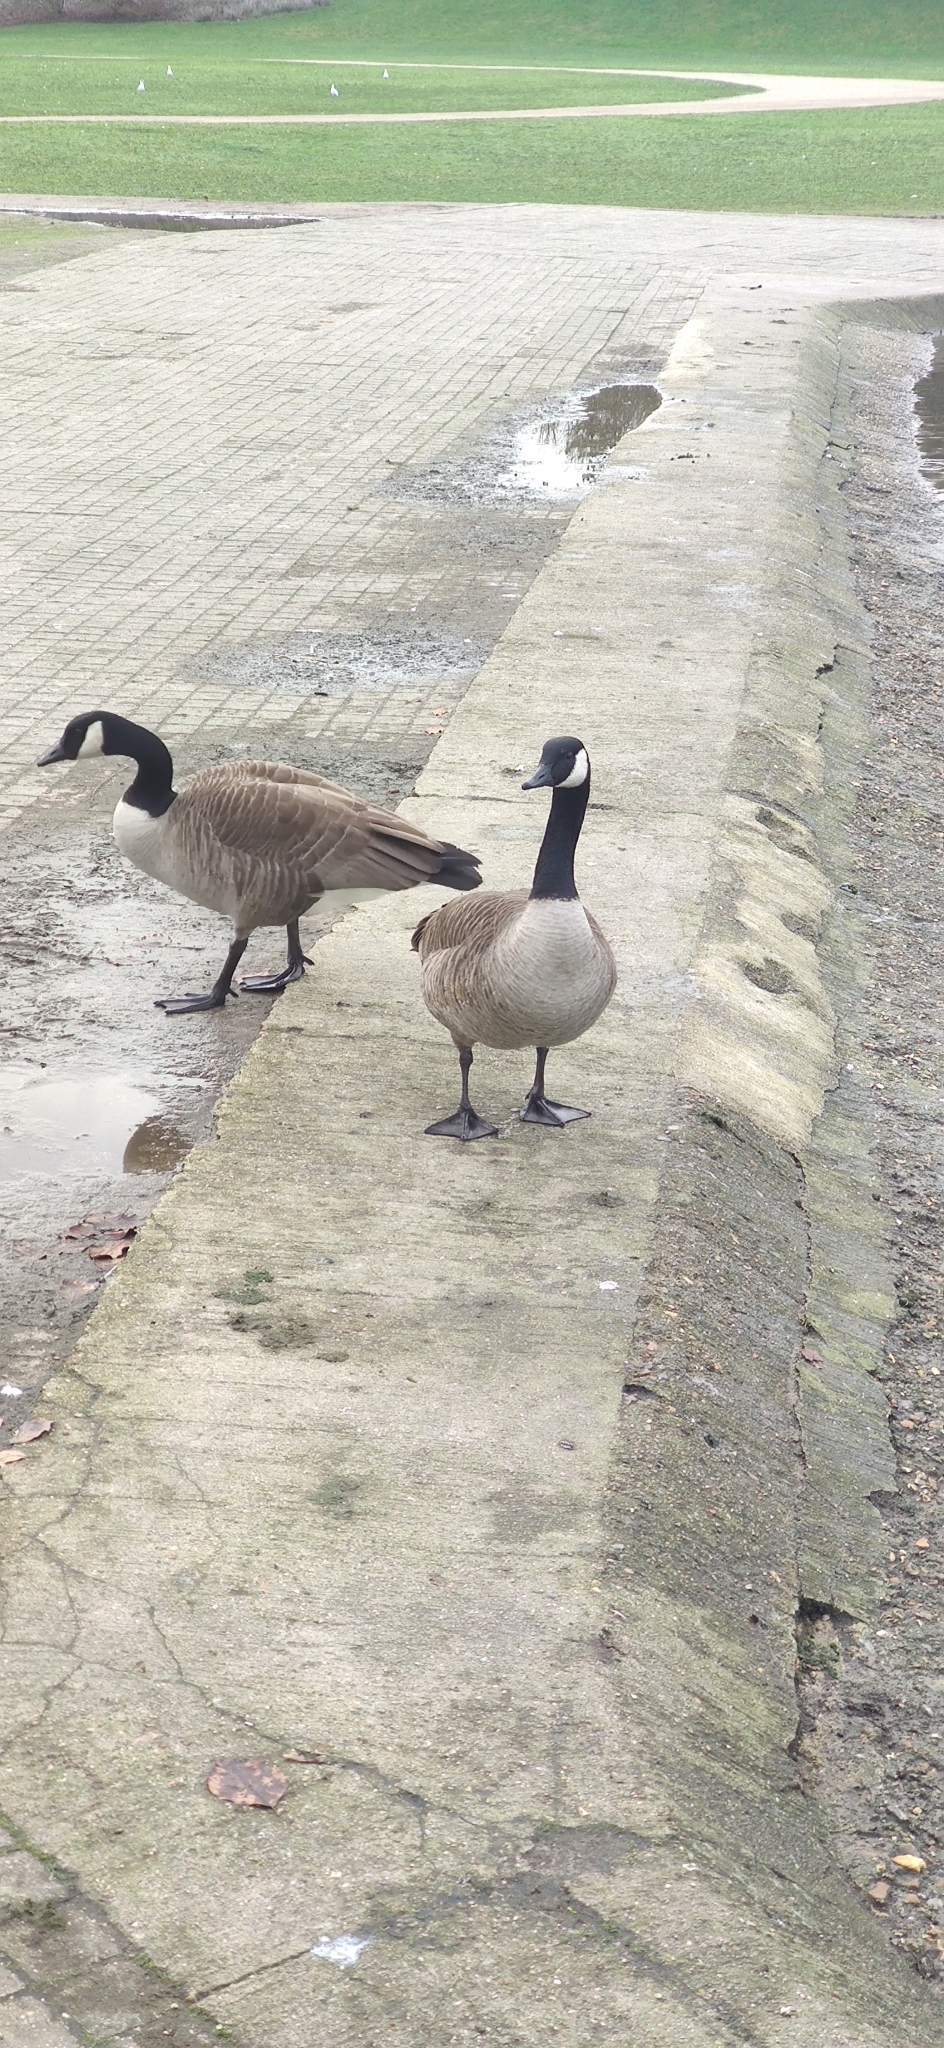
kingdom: Animalia
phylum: Chordata
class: Aves
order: Anseriformes
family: Anatidae
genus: Branta
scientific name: Branta canadensis
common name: Canada goose
